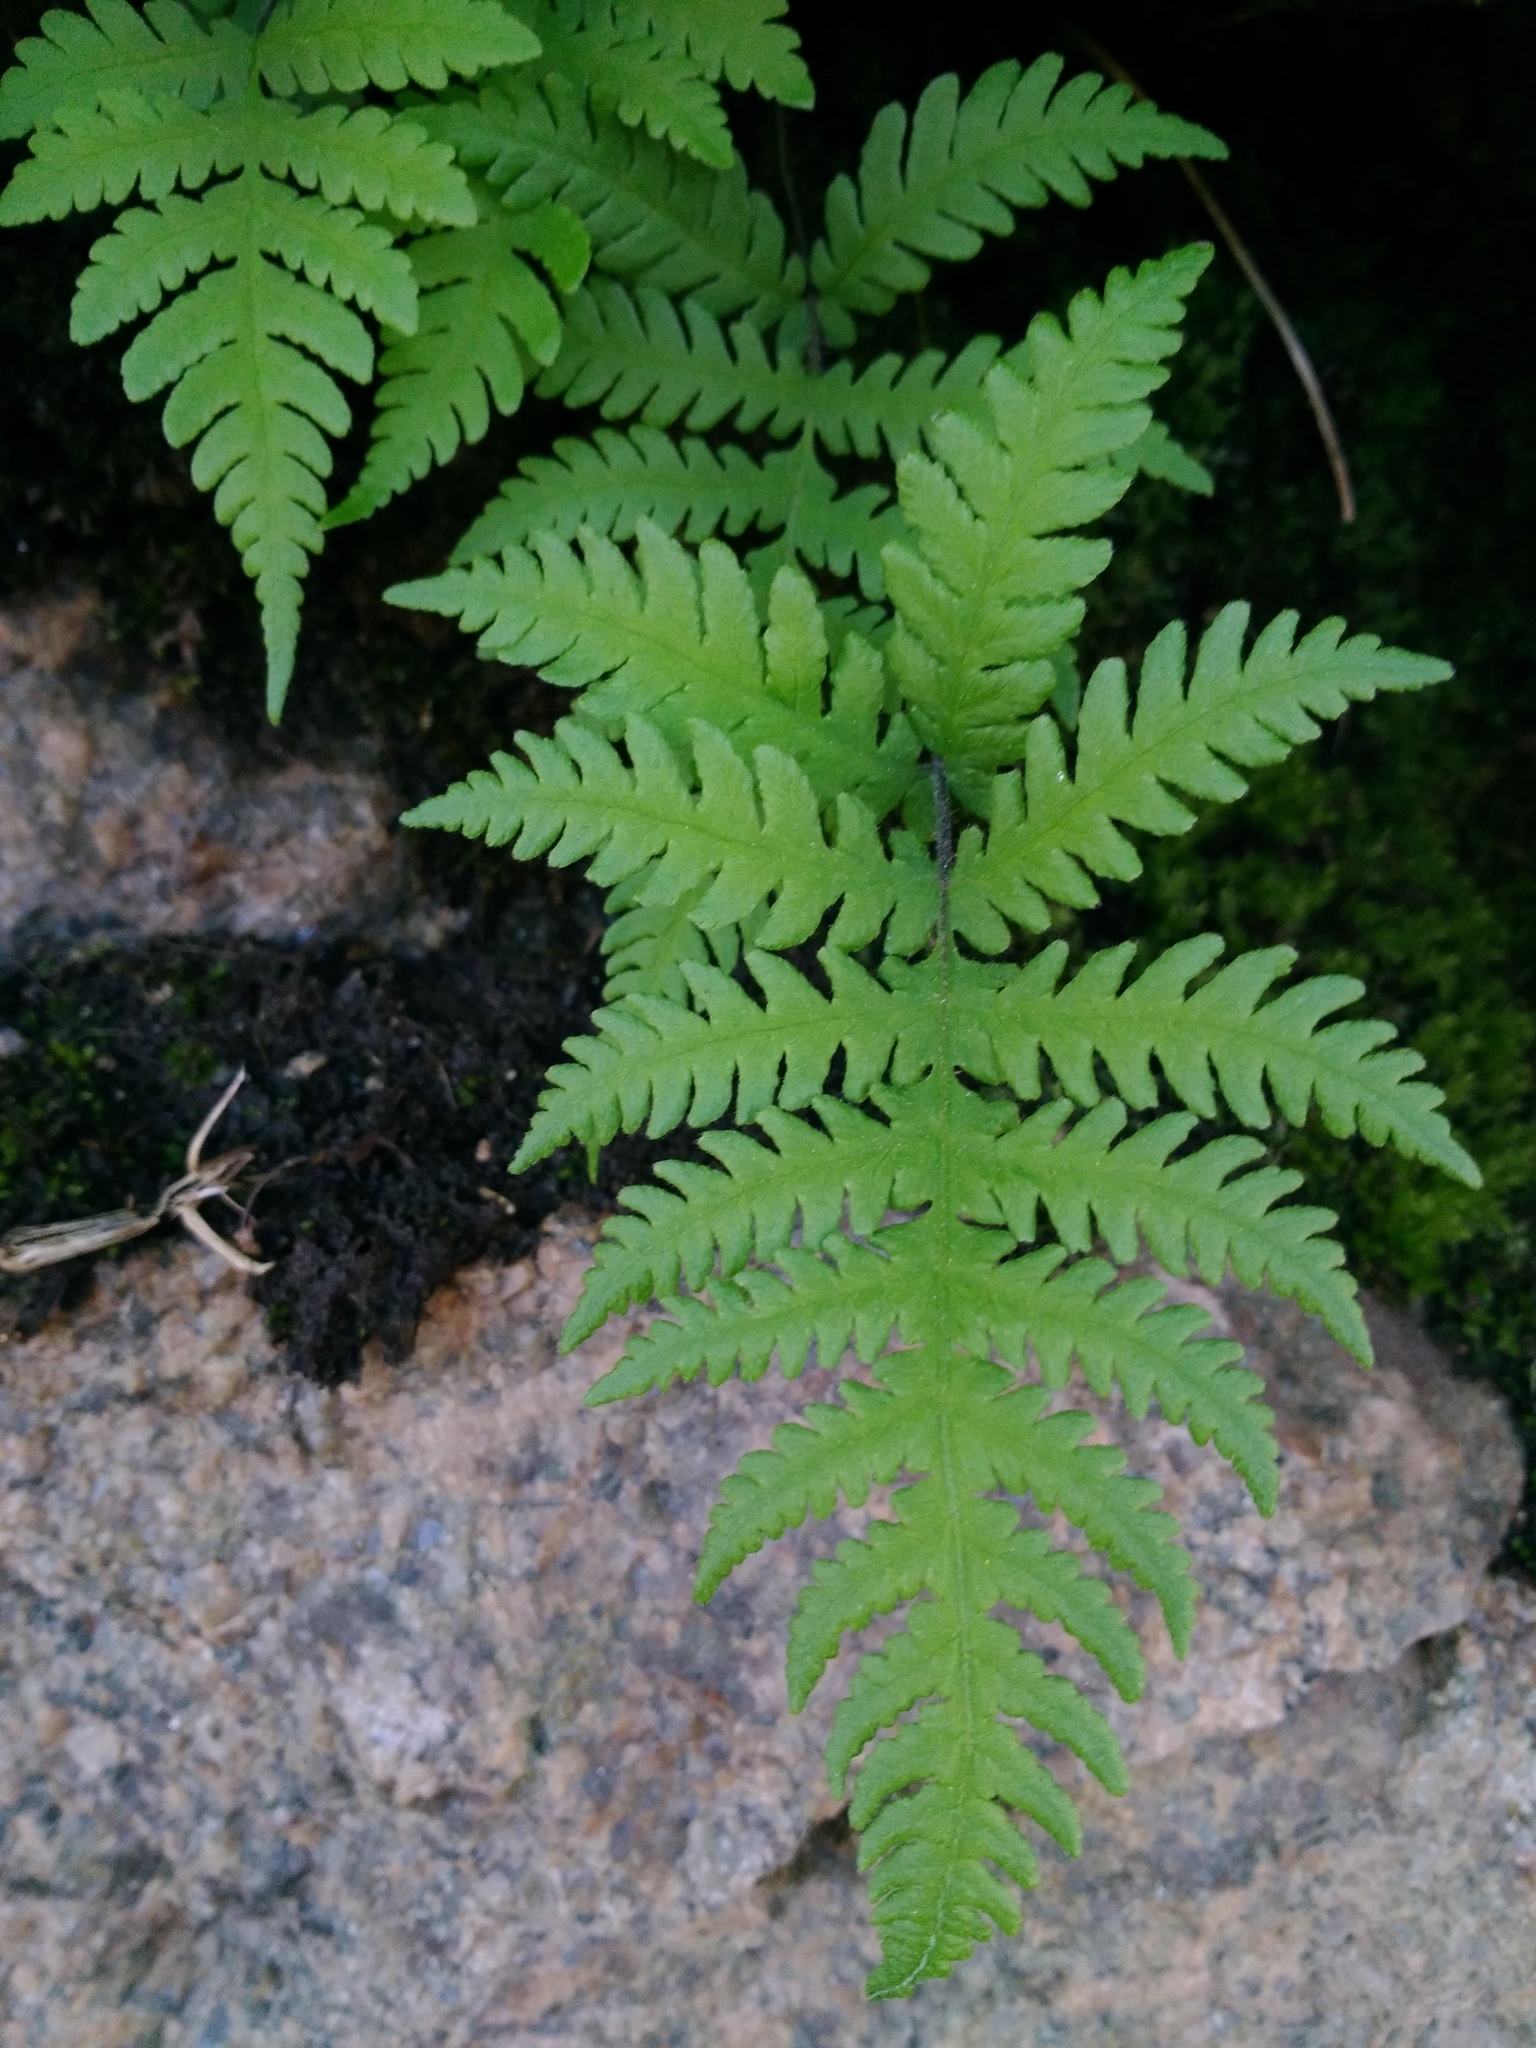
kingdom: Plantae
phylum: Tracheophyta
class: Polypodiopsida
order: Polypodiales
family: Thelypteridaceae
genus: Phegopteris
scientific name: Phegopteris connectilis
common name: Beech fern
